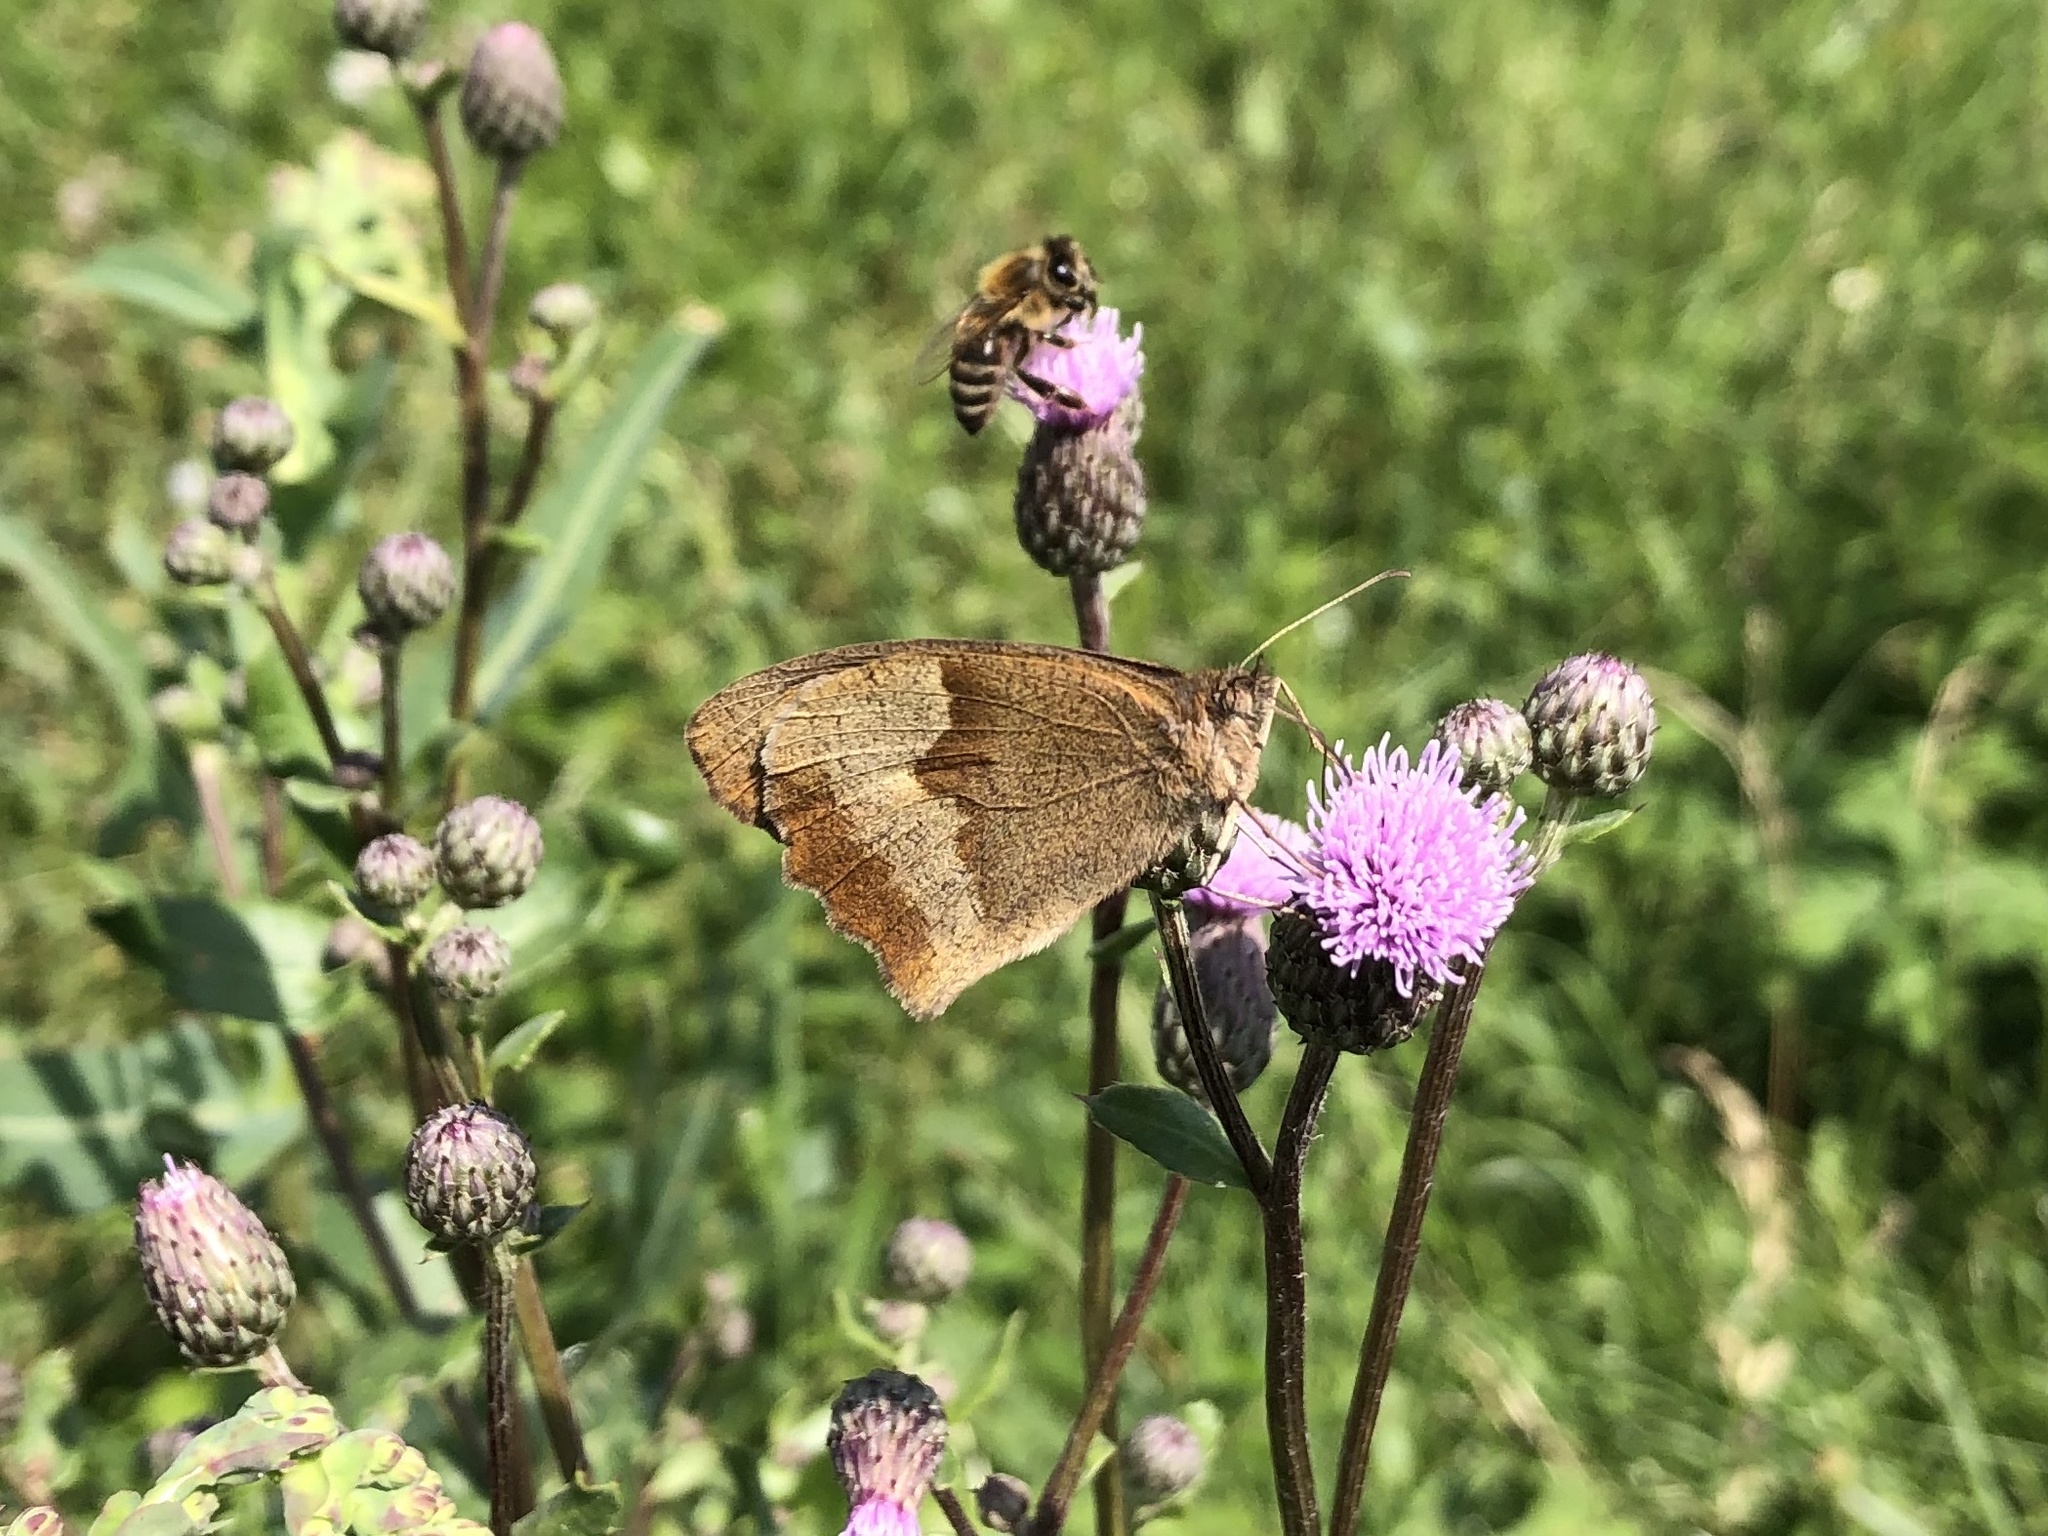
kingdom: Animalia
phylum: Arthropoda
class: Insecta
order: Lepidoptera
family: Nymphalidae
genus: Maniola
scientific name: Maniola jurtina
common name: Meadow brown
